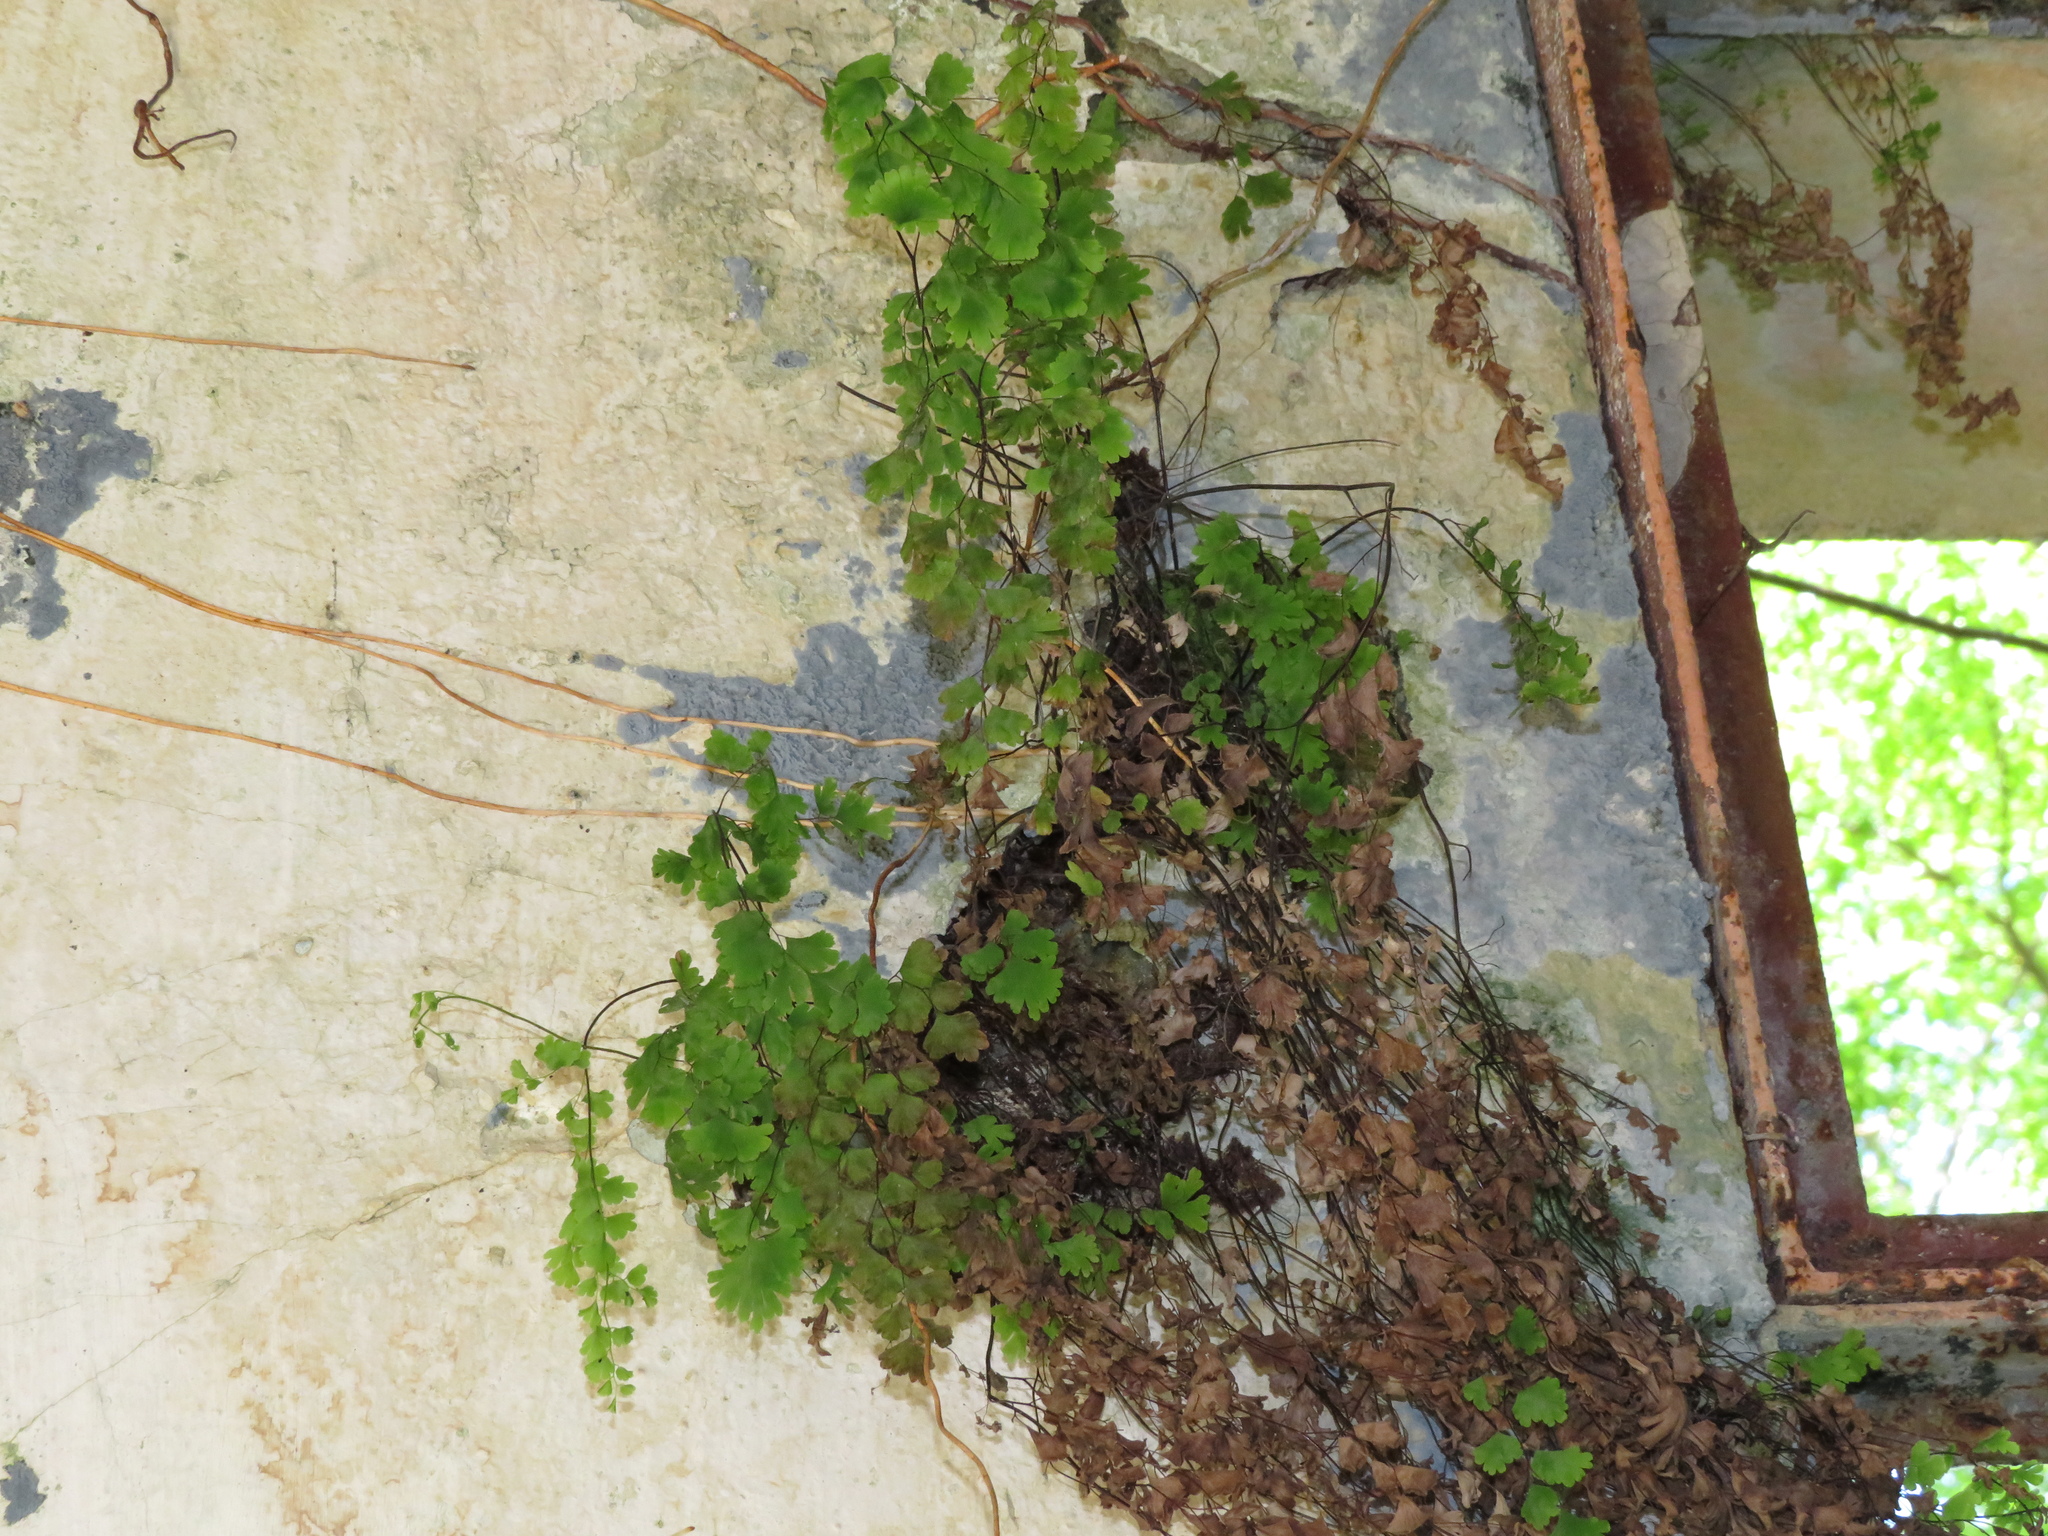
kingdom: Plantae
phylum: Tracheophyta
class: Polypodiopsida
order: Polypodiales
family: Pteridaceae
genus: Adiantum
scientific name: Adiantum capillus-veneris
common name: Maidenhair fern
